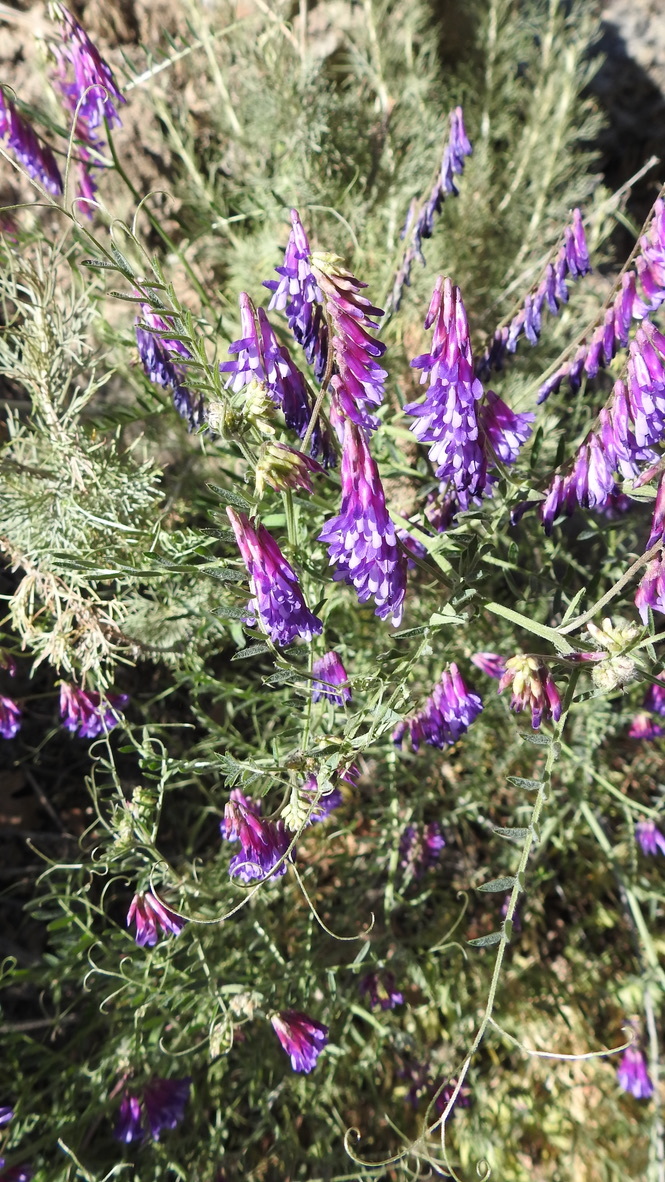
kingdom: Plantae
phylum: Tracheophyta
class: Magnoliopsida
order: Fabales
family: Fabaceae
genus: Vicia
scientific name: Vicia villosa
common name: Fodder vetch
